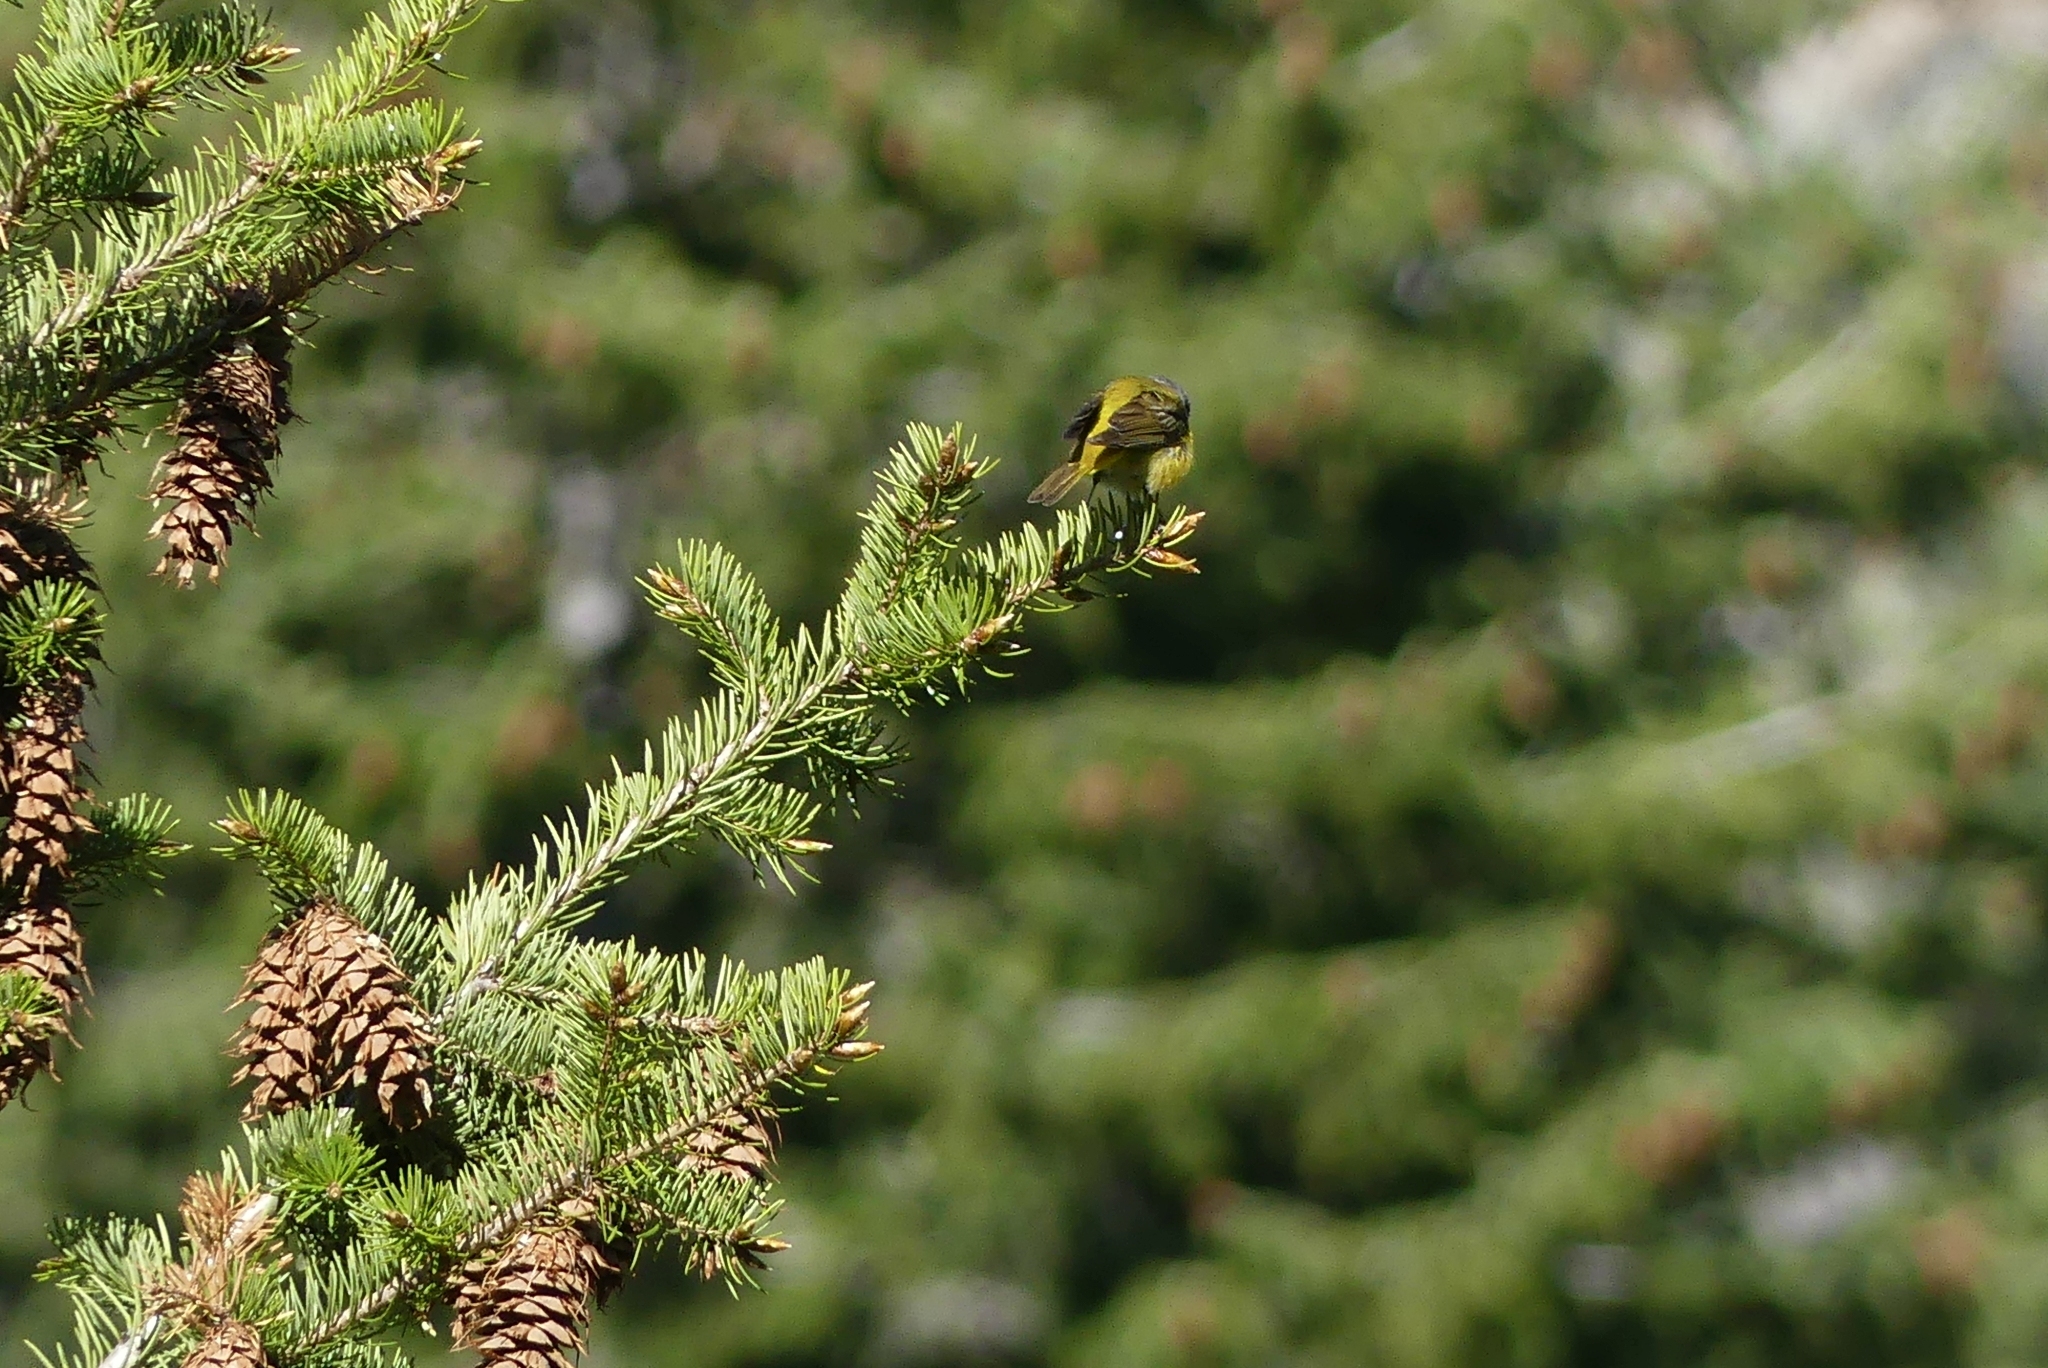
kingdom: Animalia
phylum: Chordata
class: Aves
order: Passeriformes
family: Parulidae
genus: Leiothlypis
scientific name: Leiothlypis ruficapilla
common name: Nashville warbler
